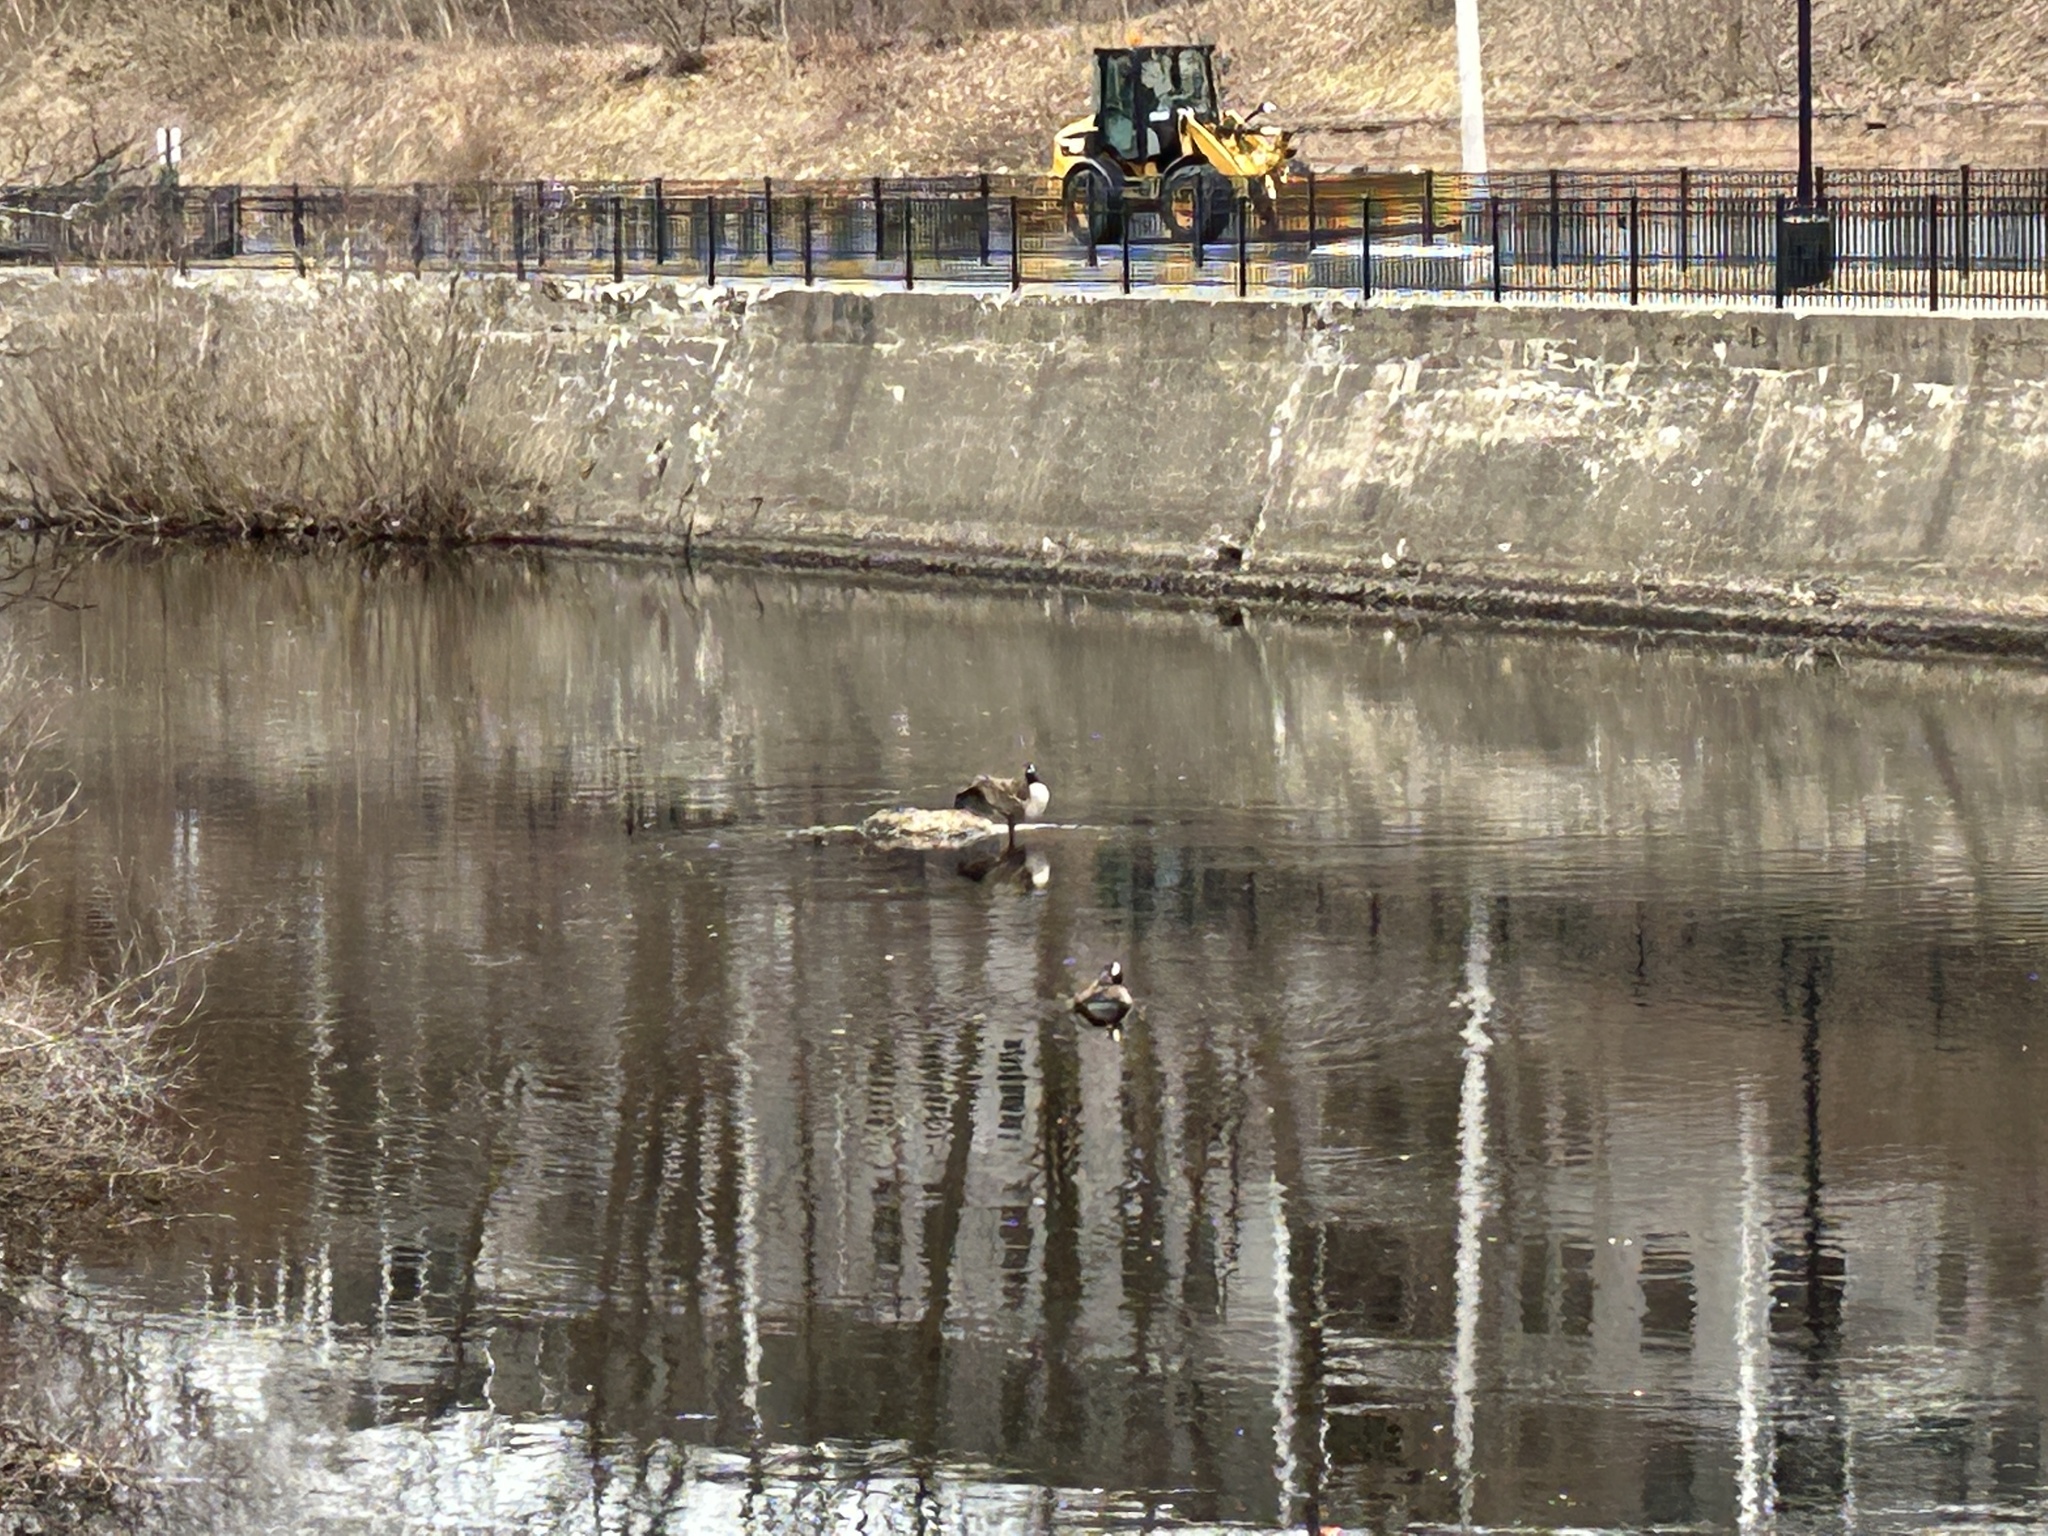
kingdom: Animalia
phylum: Chordata
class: Aves
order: Anseriformes
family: Anatidae
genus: Branta
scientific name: Branta canadensis
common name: Canada goose
